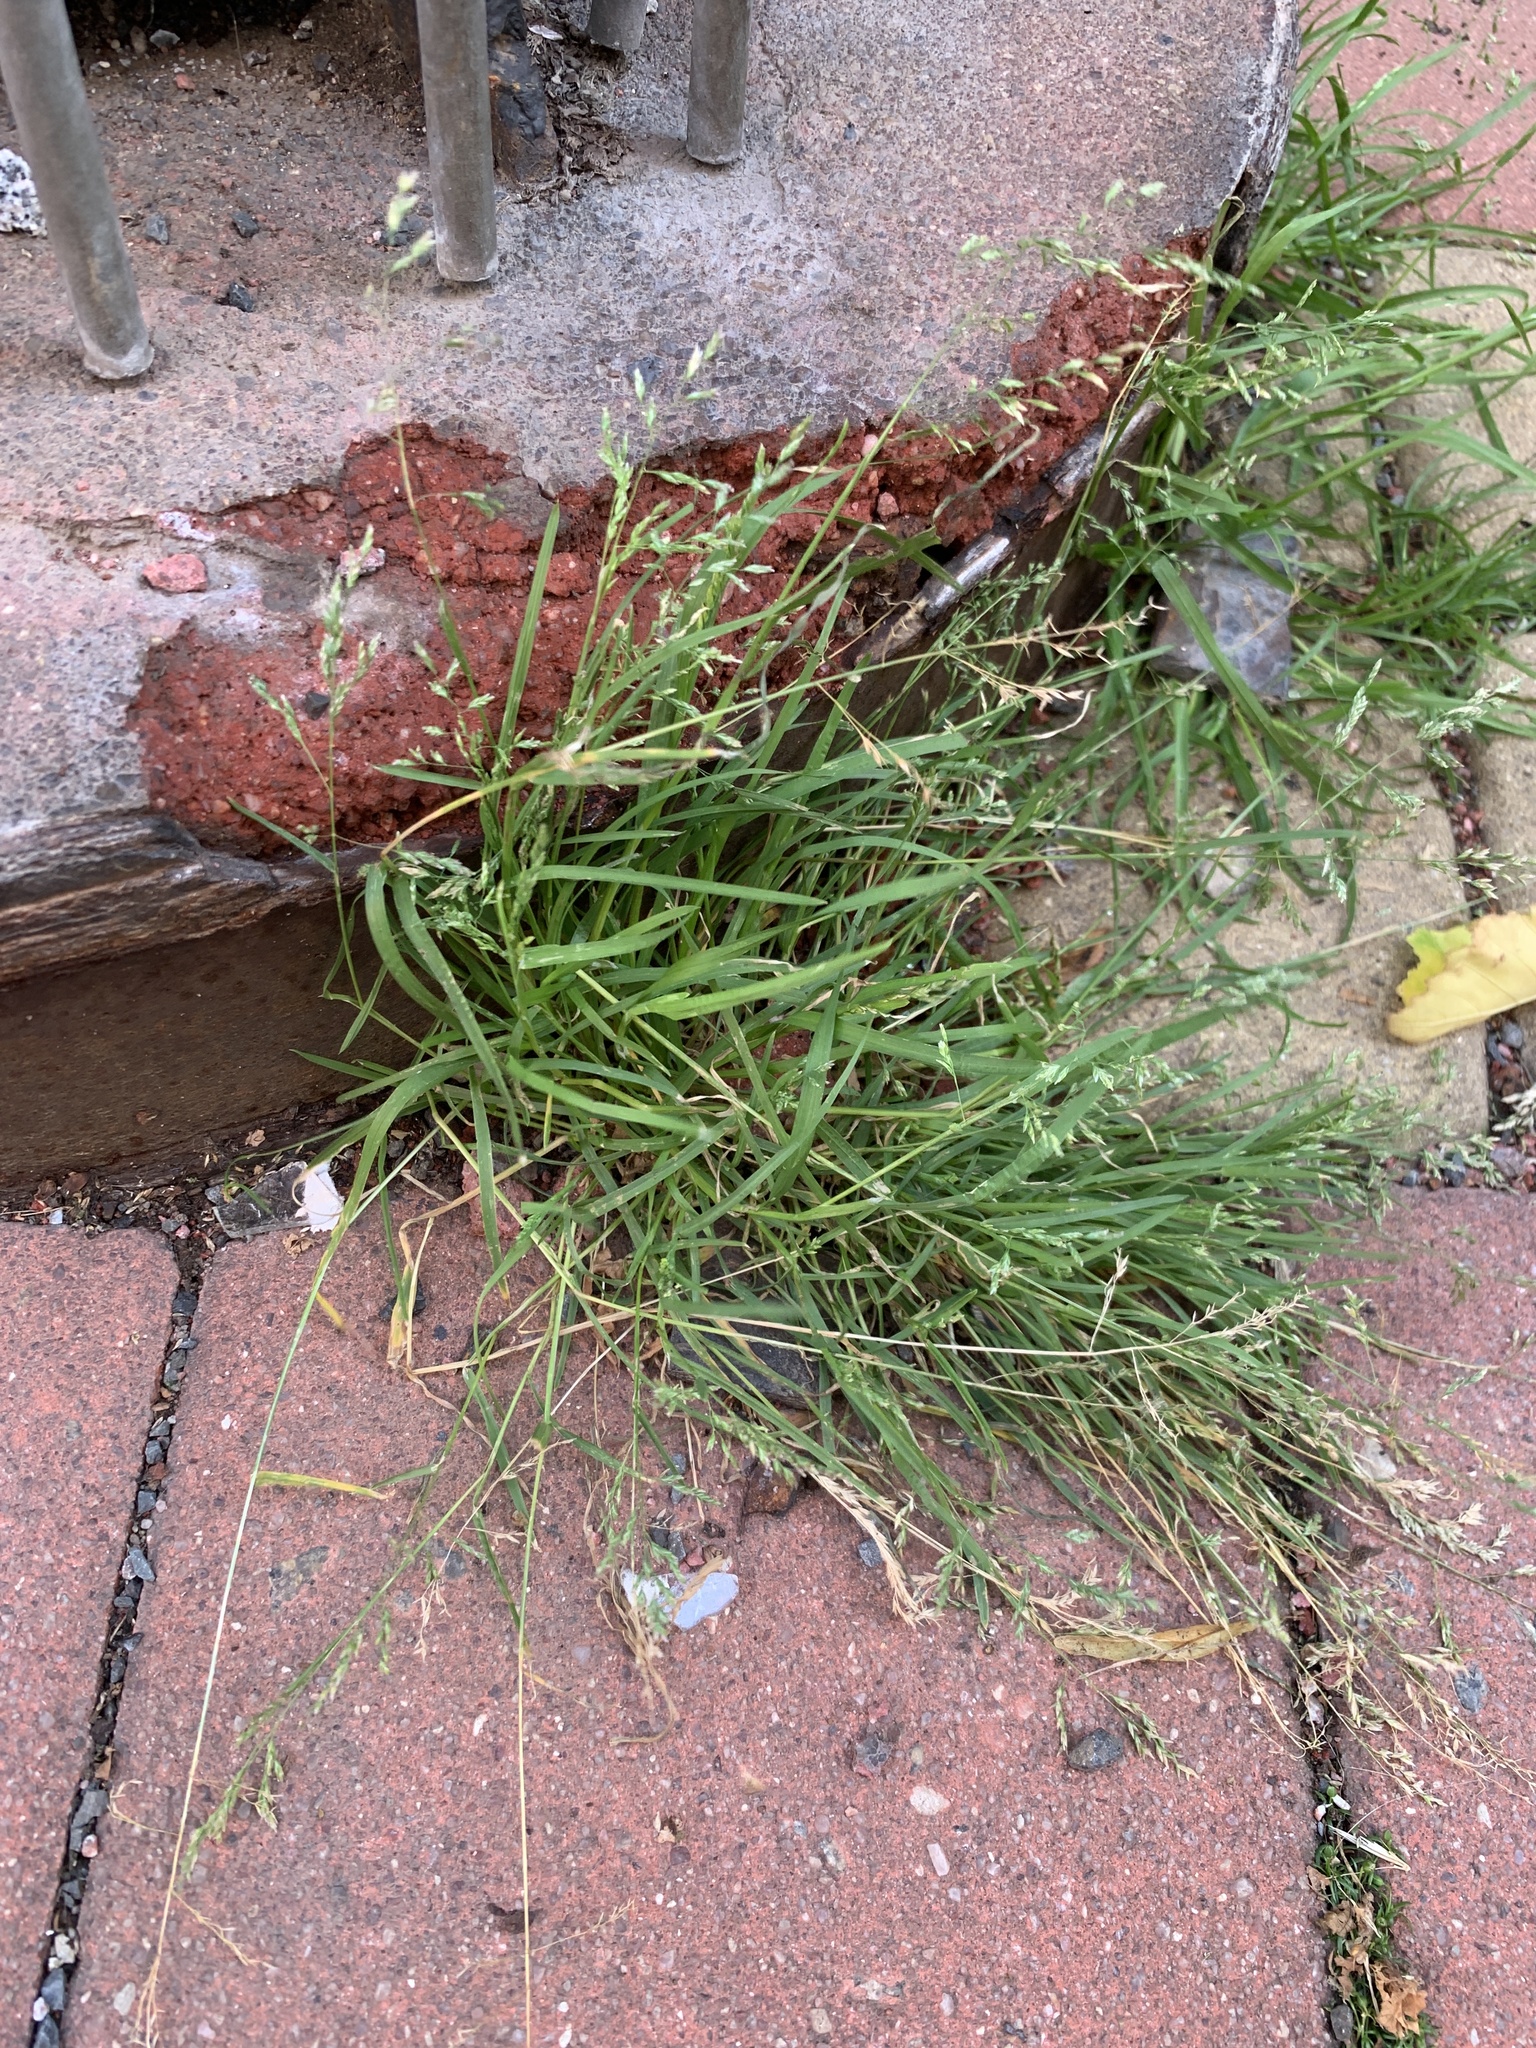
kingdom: Plantae
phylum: Tracheophyta
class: Liliopsida
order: Poales
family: Poaceae
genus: Poa
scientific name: Poa annua
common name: Annual bluegrass
